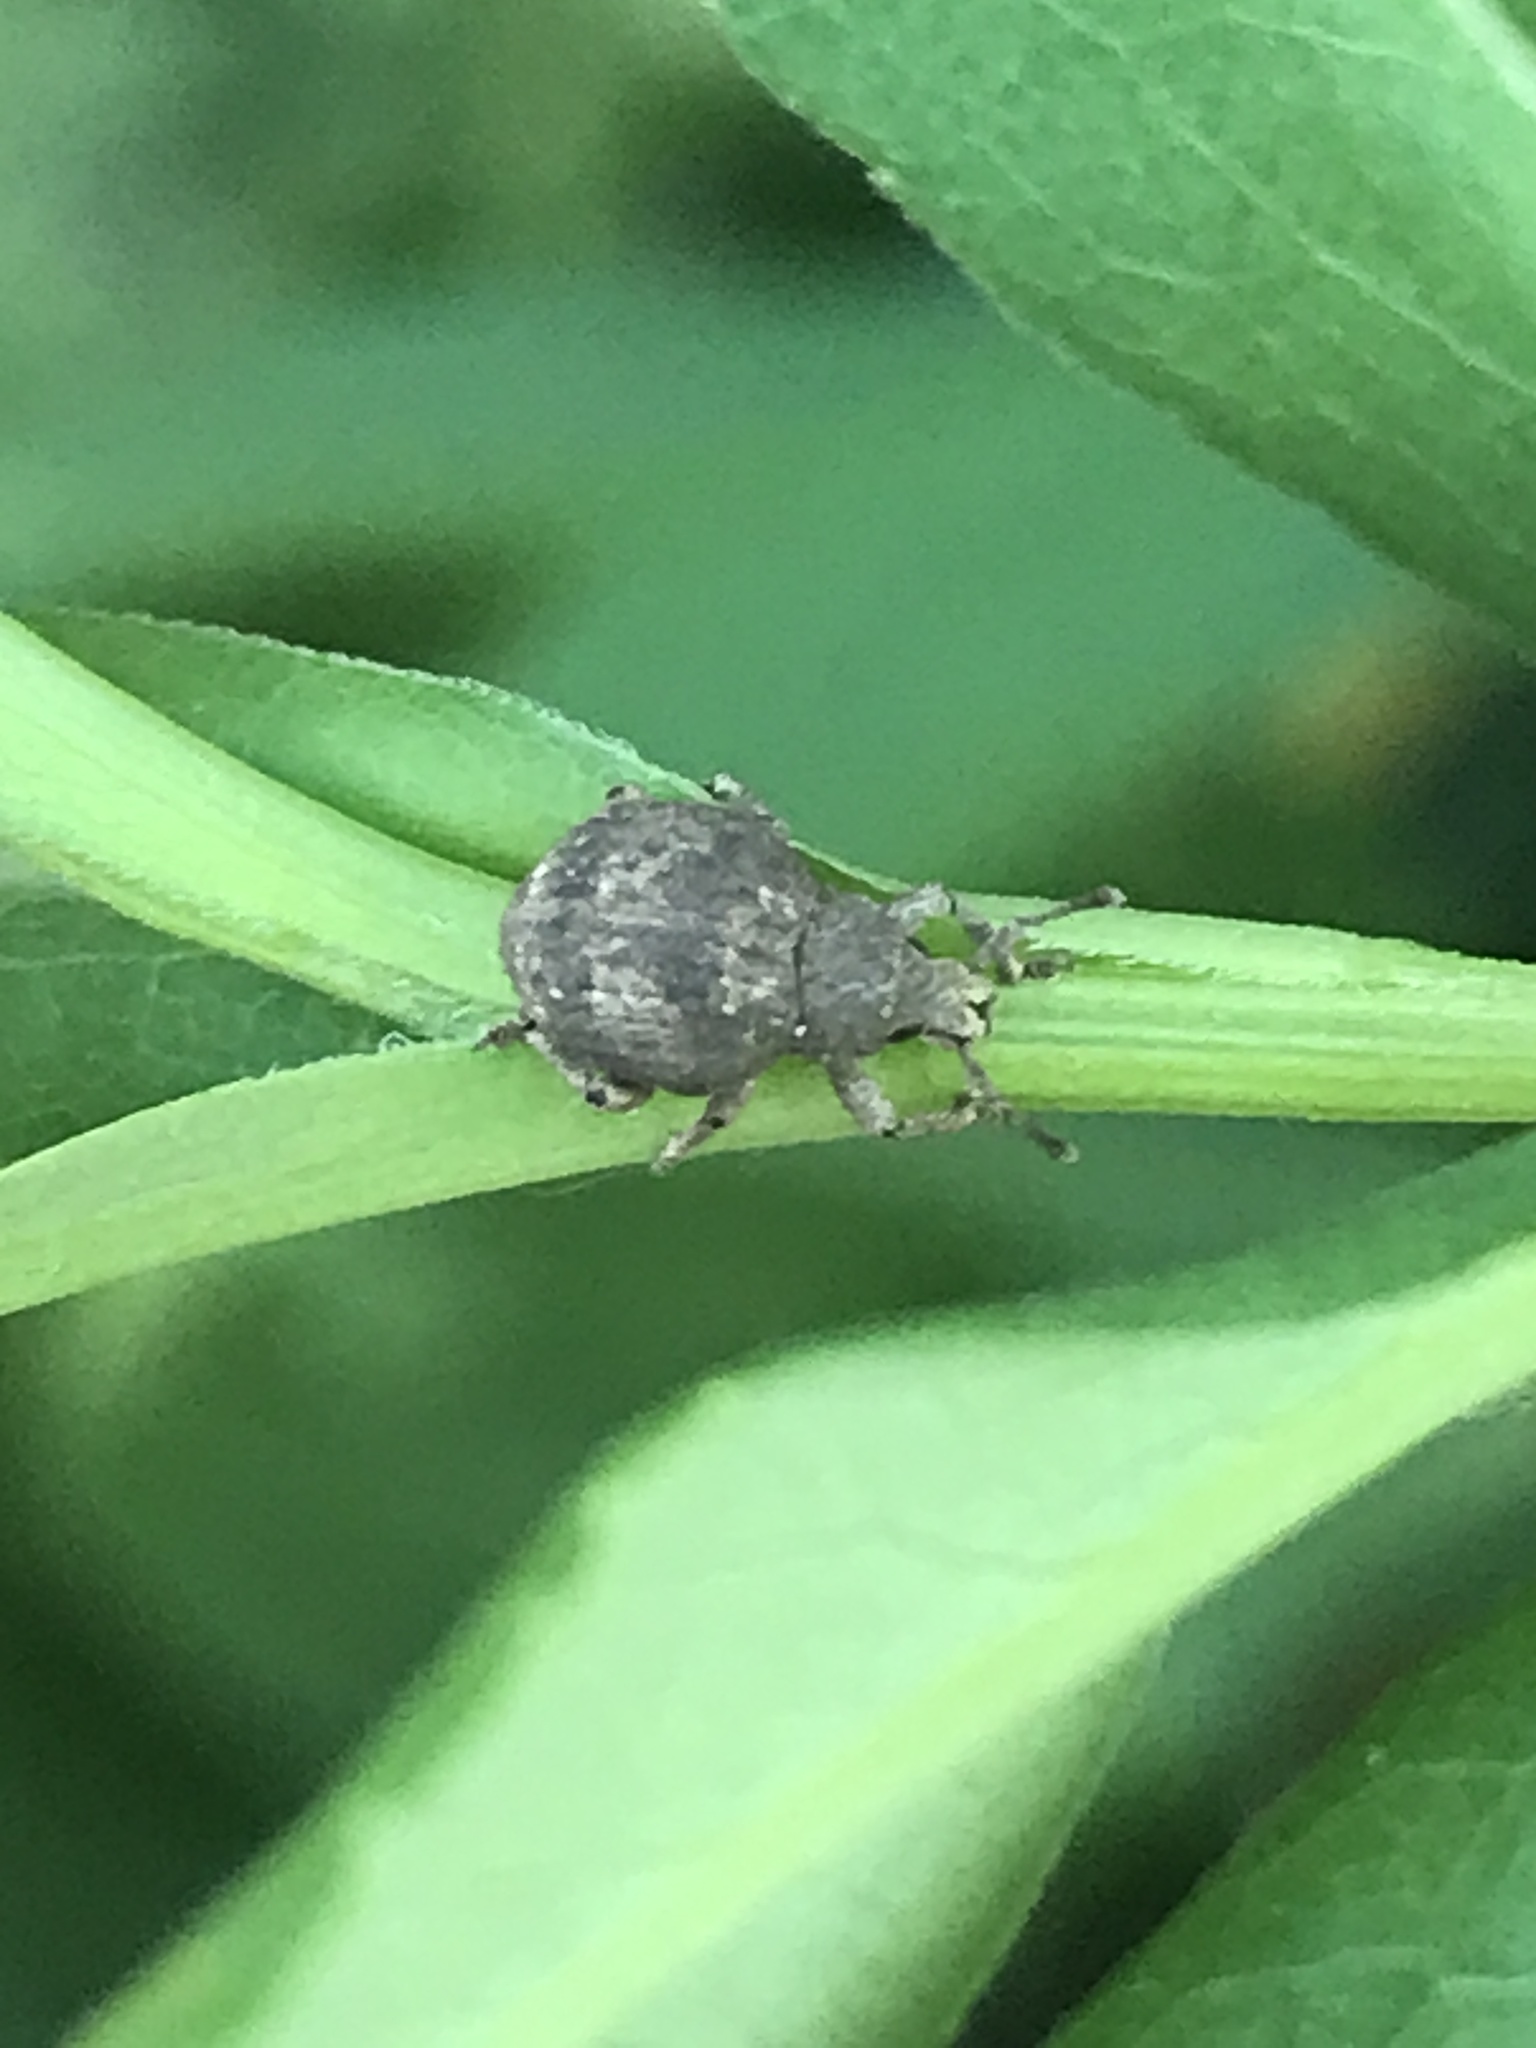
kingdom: Animalia
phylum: Arthropoda
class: Insecta
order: Coleoptera
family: Curculionidae
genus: Pseudocneorhinus
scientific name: Pseudocneorhinus bifasciatus
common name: Two-banded japanese weevil
